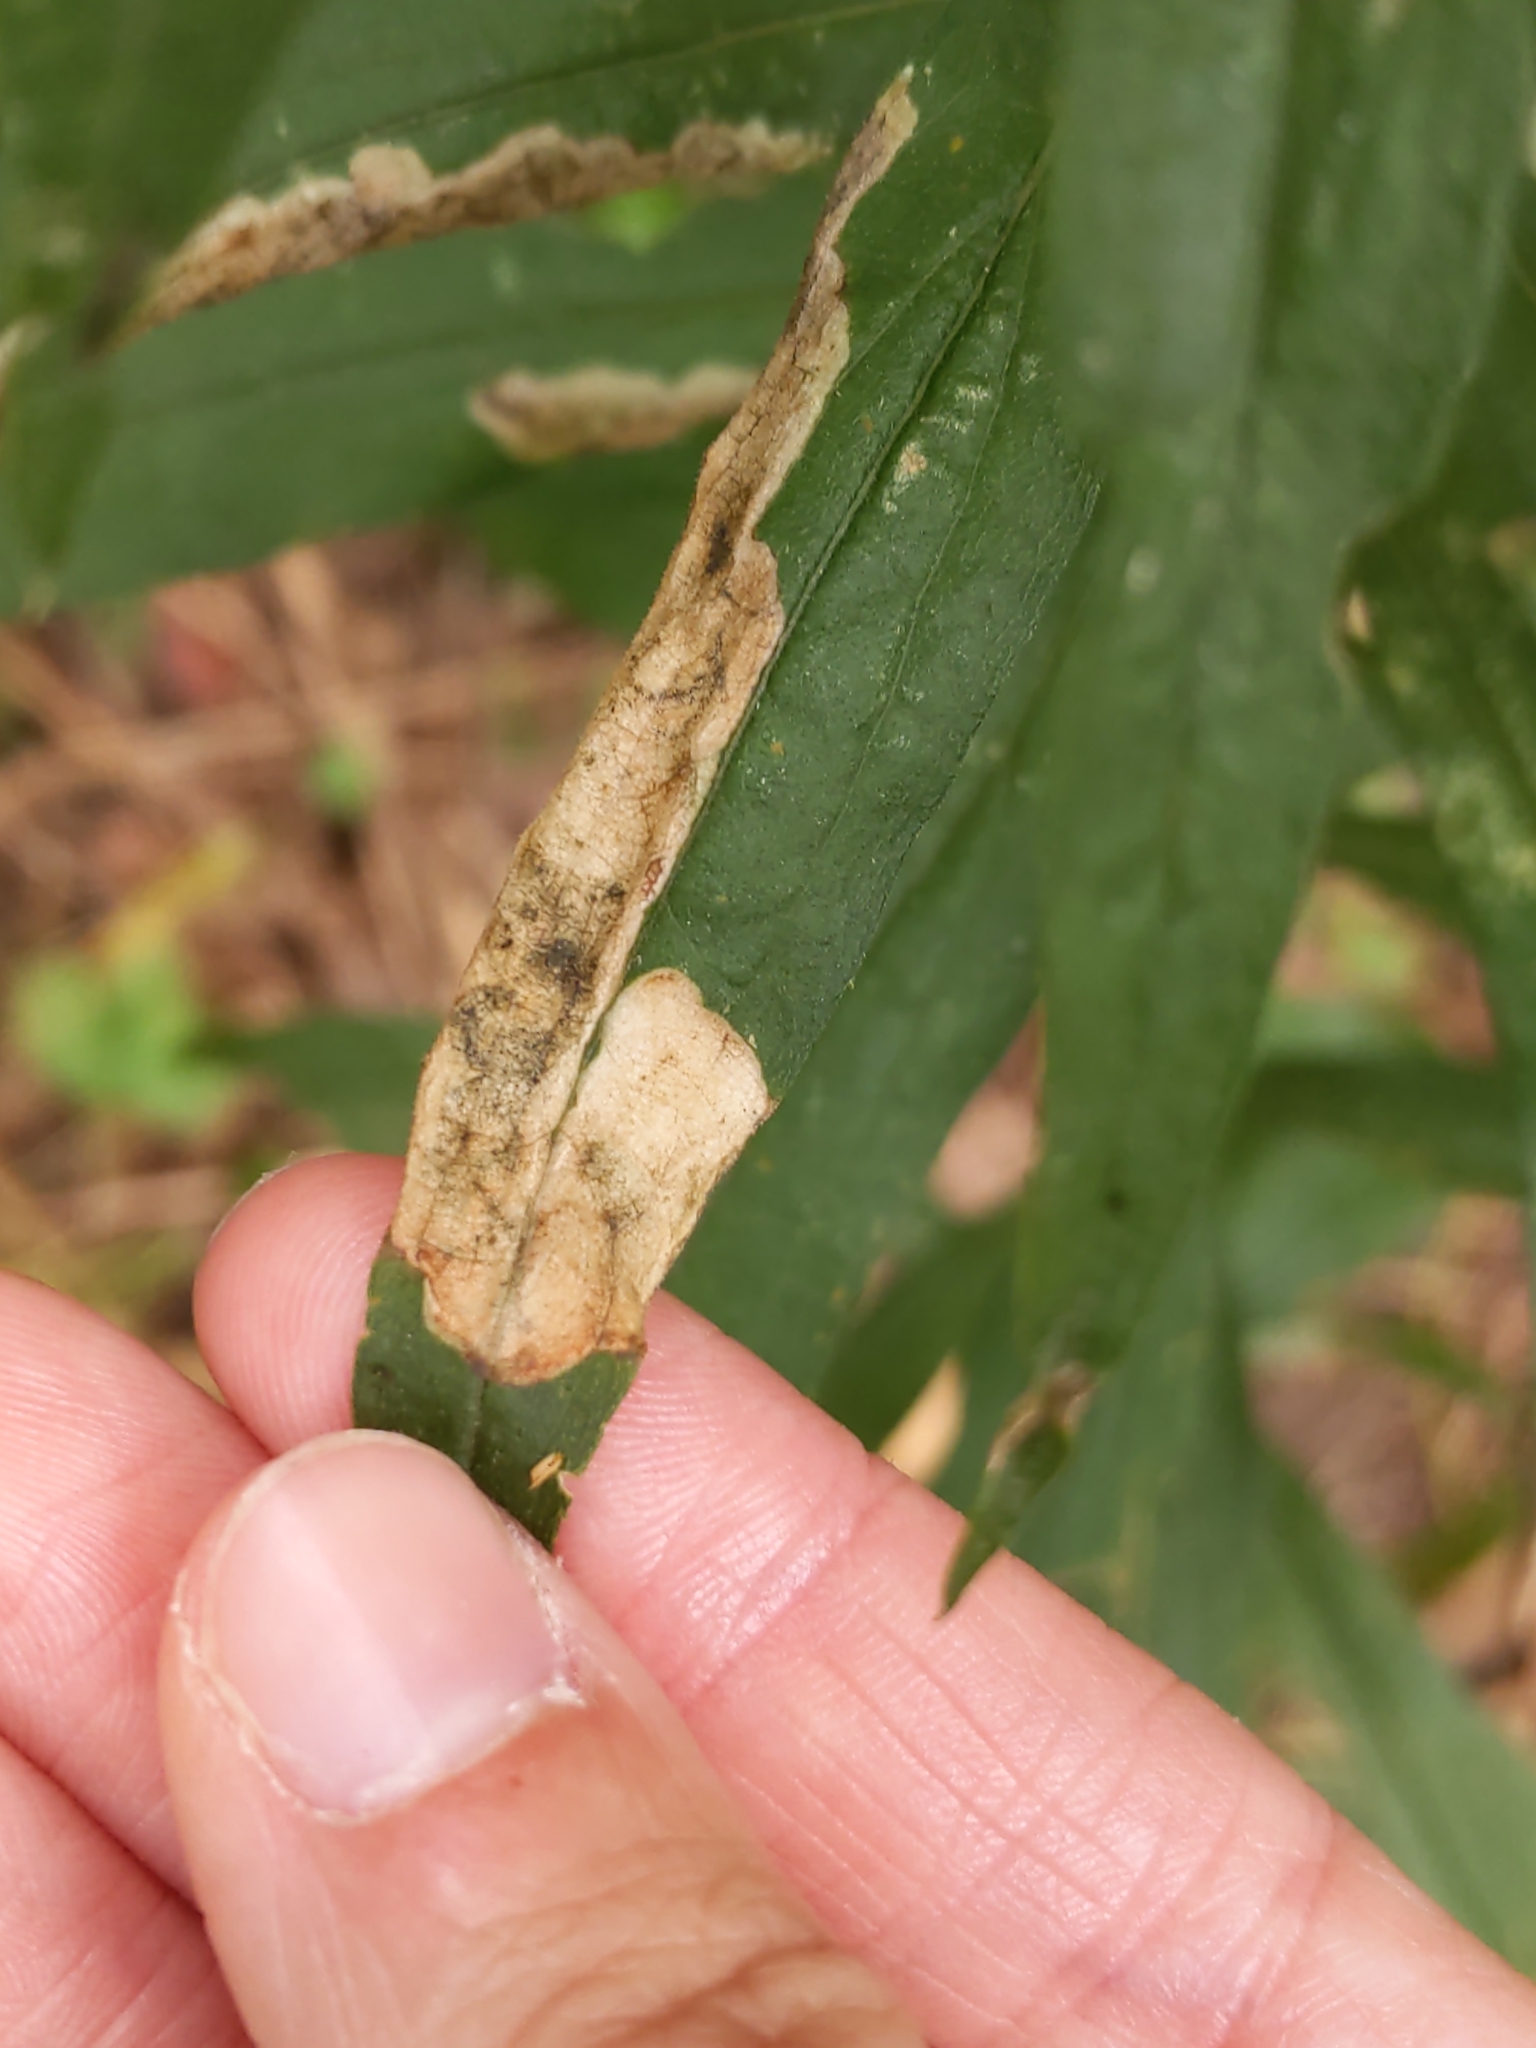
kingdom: Animalia
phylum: Arthropoda
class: Insecta
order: Diptera
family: Agromyzidae
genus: Nemorimyza
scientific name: Nemorimyza posticata
